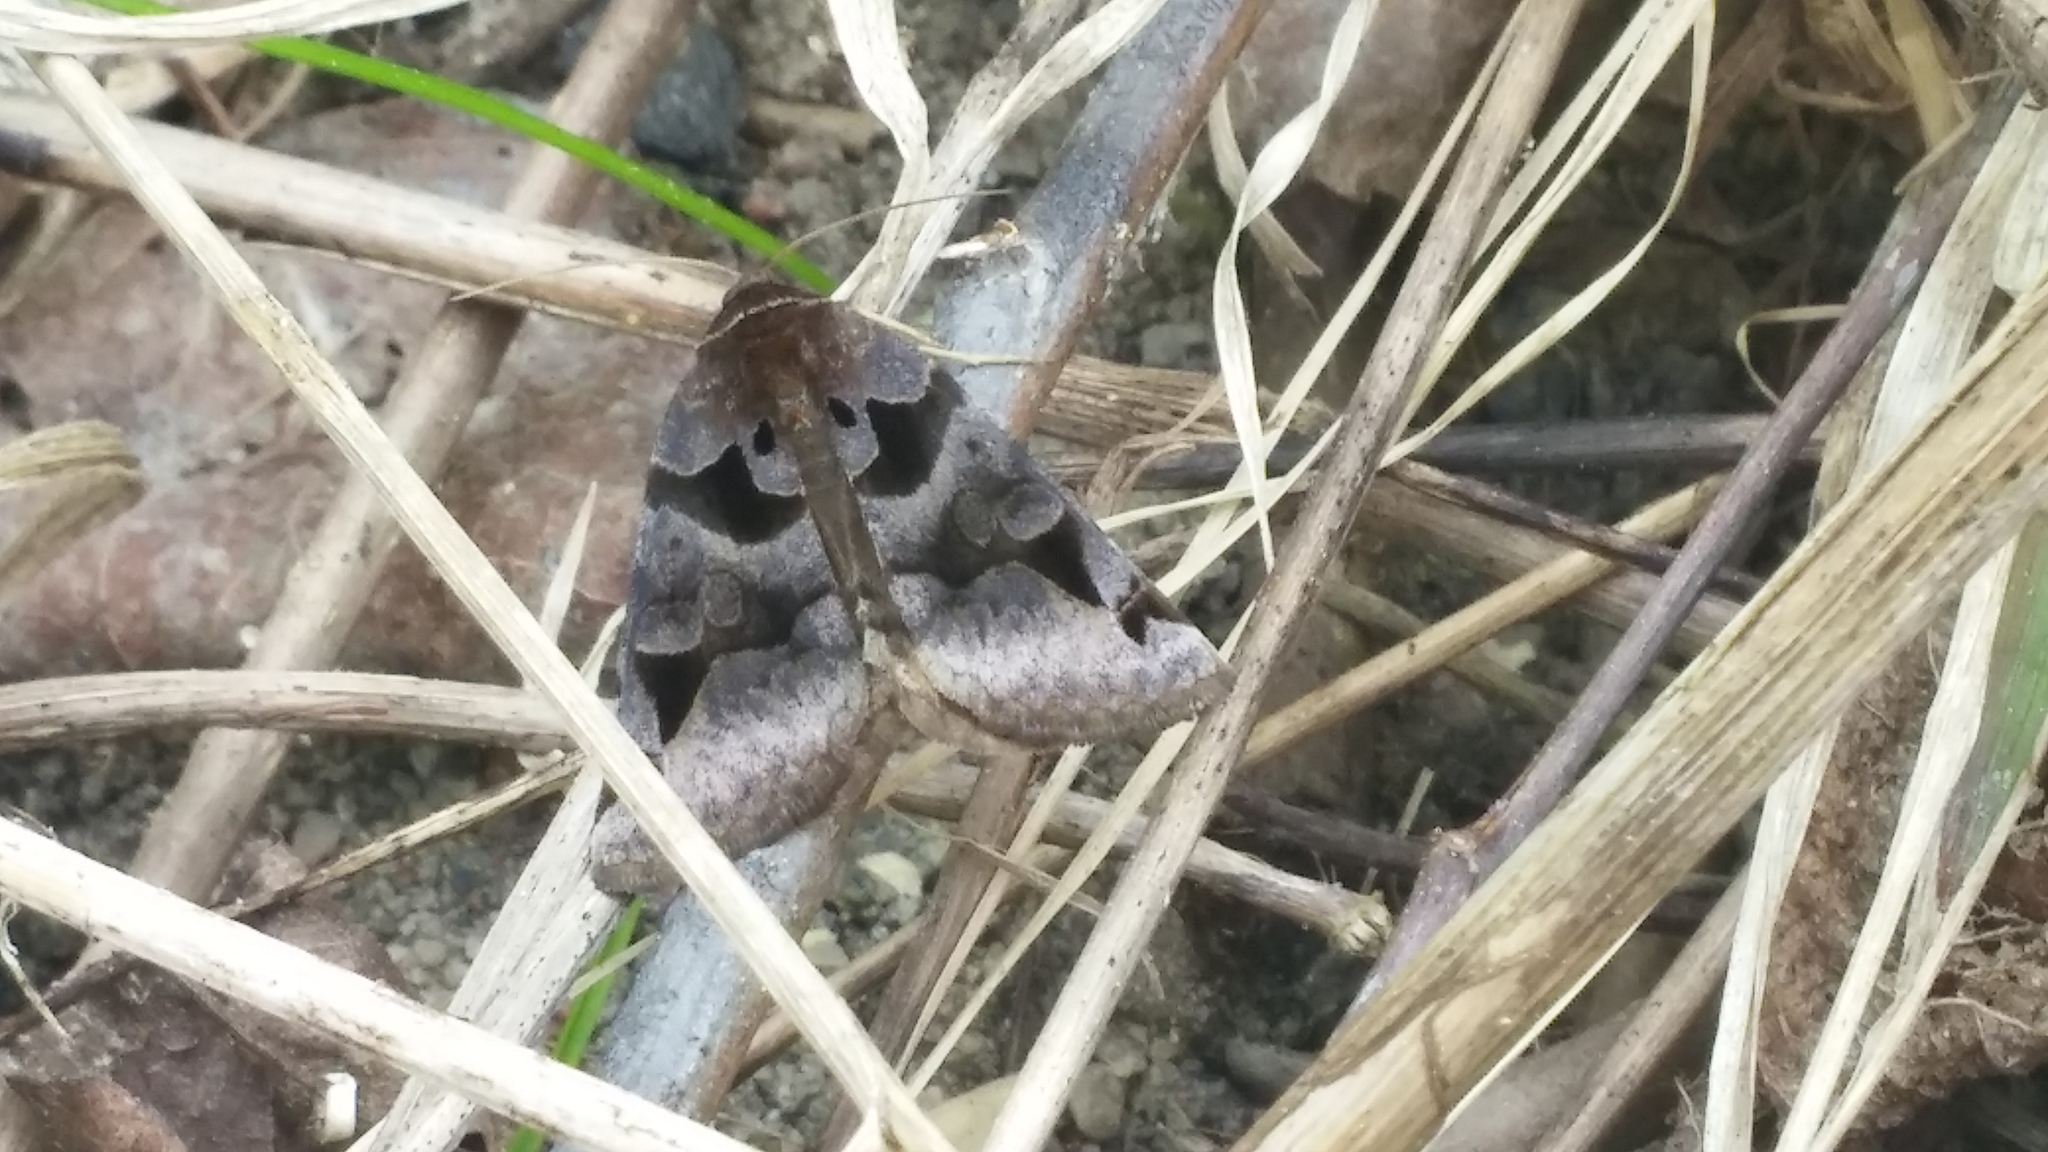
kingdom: Animalia
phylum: Arthropoda
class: Insecta
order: Lepidoptera
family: Erebidae
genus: Euclidia
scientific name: Euclidia cuspidea
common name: Toothed somberwing
